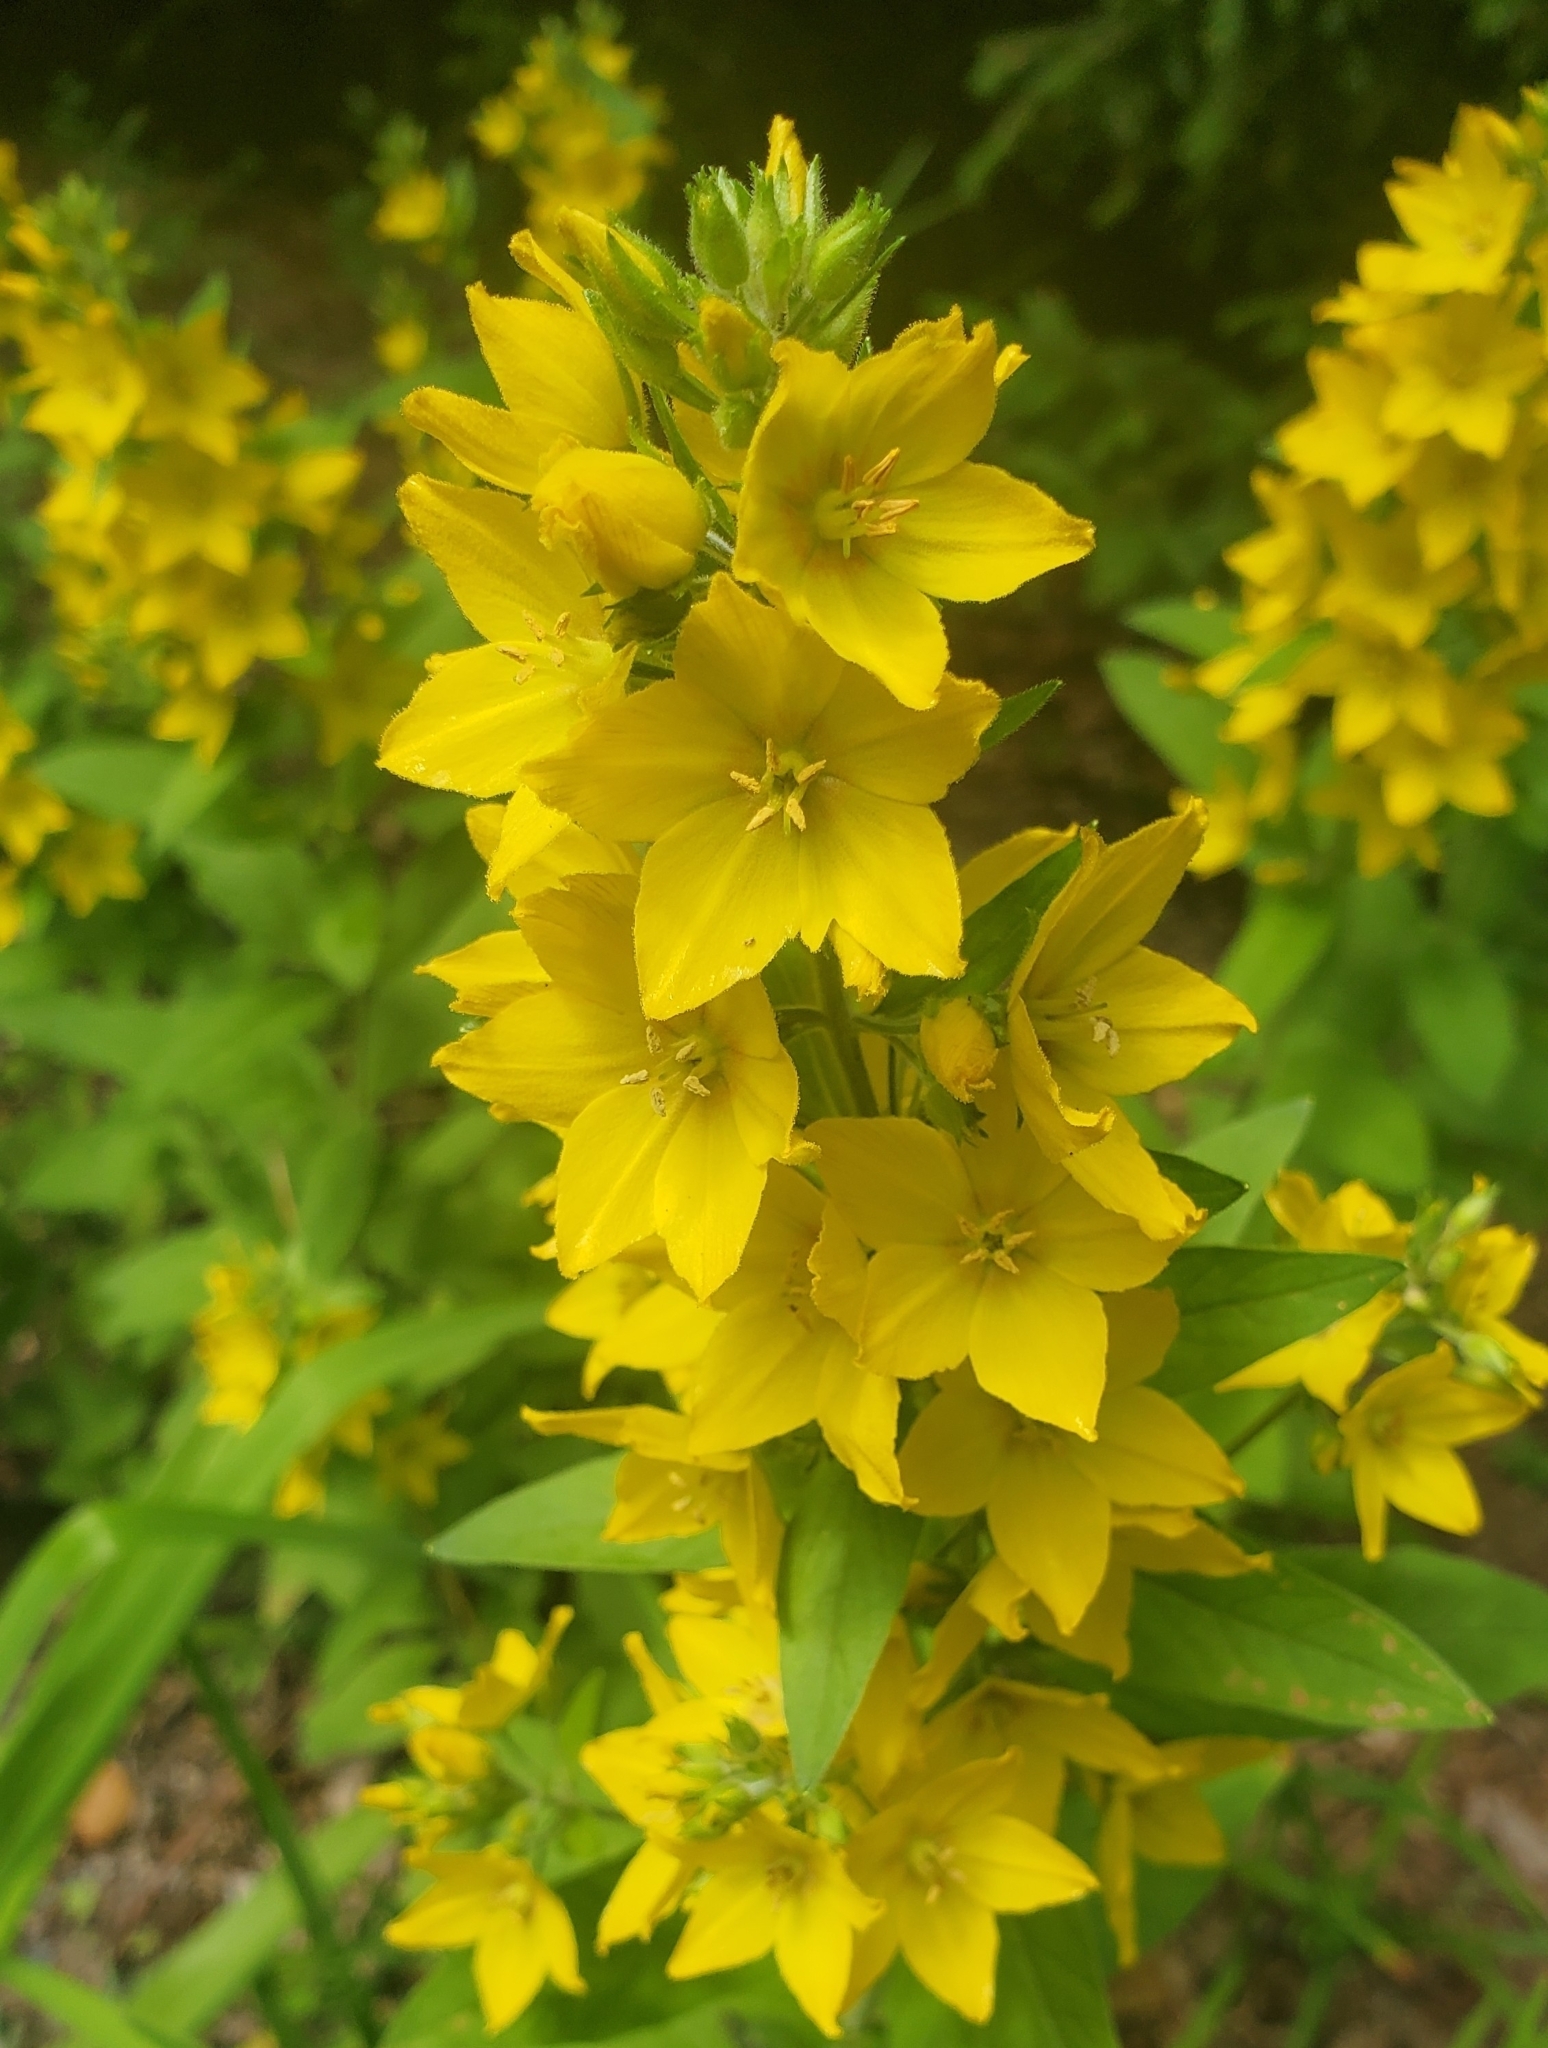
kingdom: Plantae
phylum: Tracheophyta
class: Magnoliopsida
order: Ericales
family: Primulaceae
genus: Lysimachia
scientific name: Lysimachia punctata
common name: Dotted loosestrife
